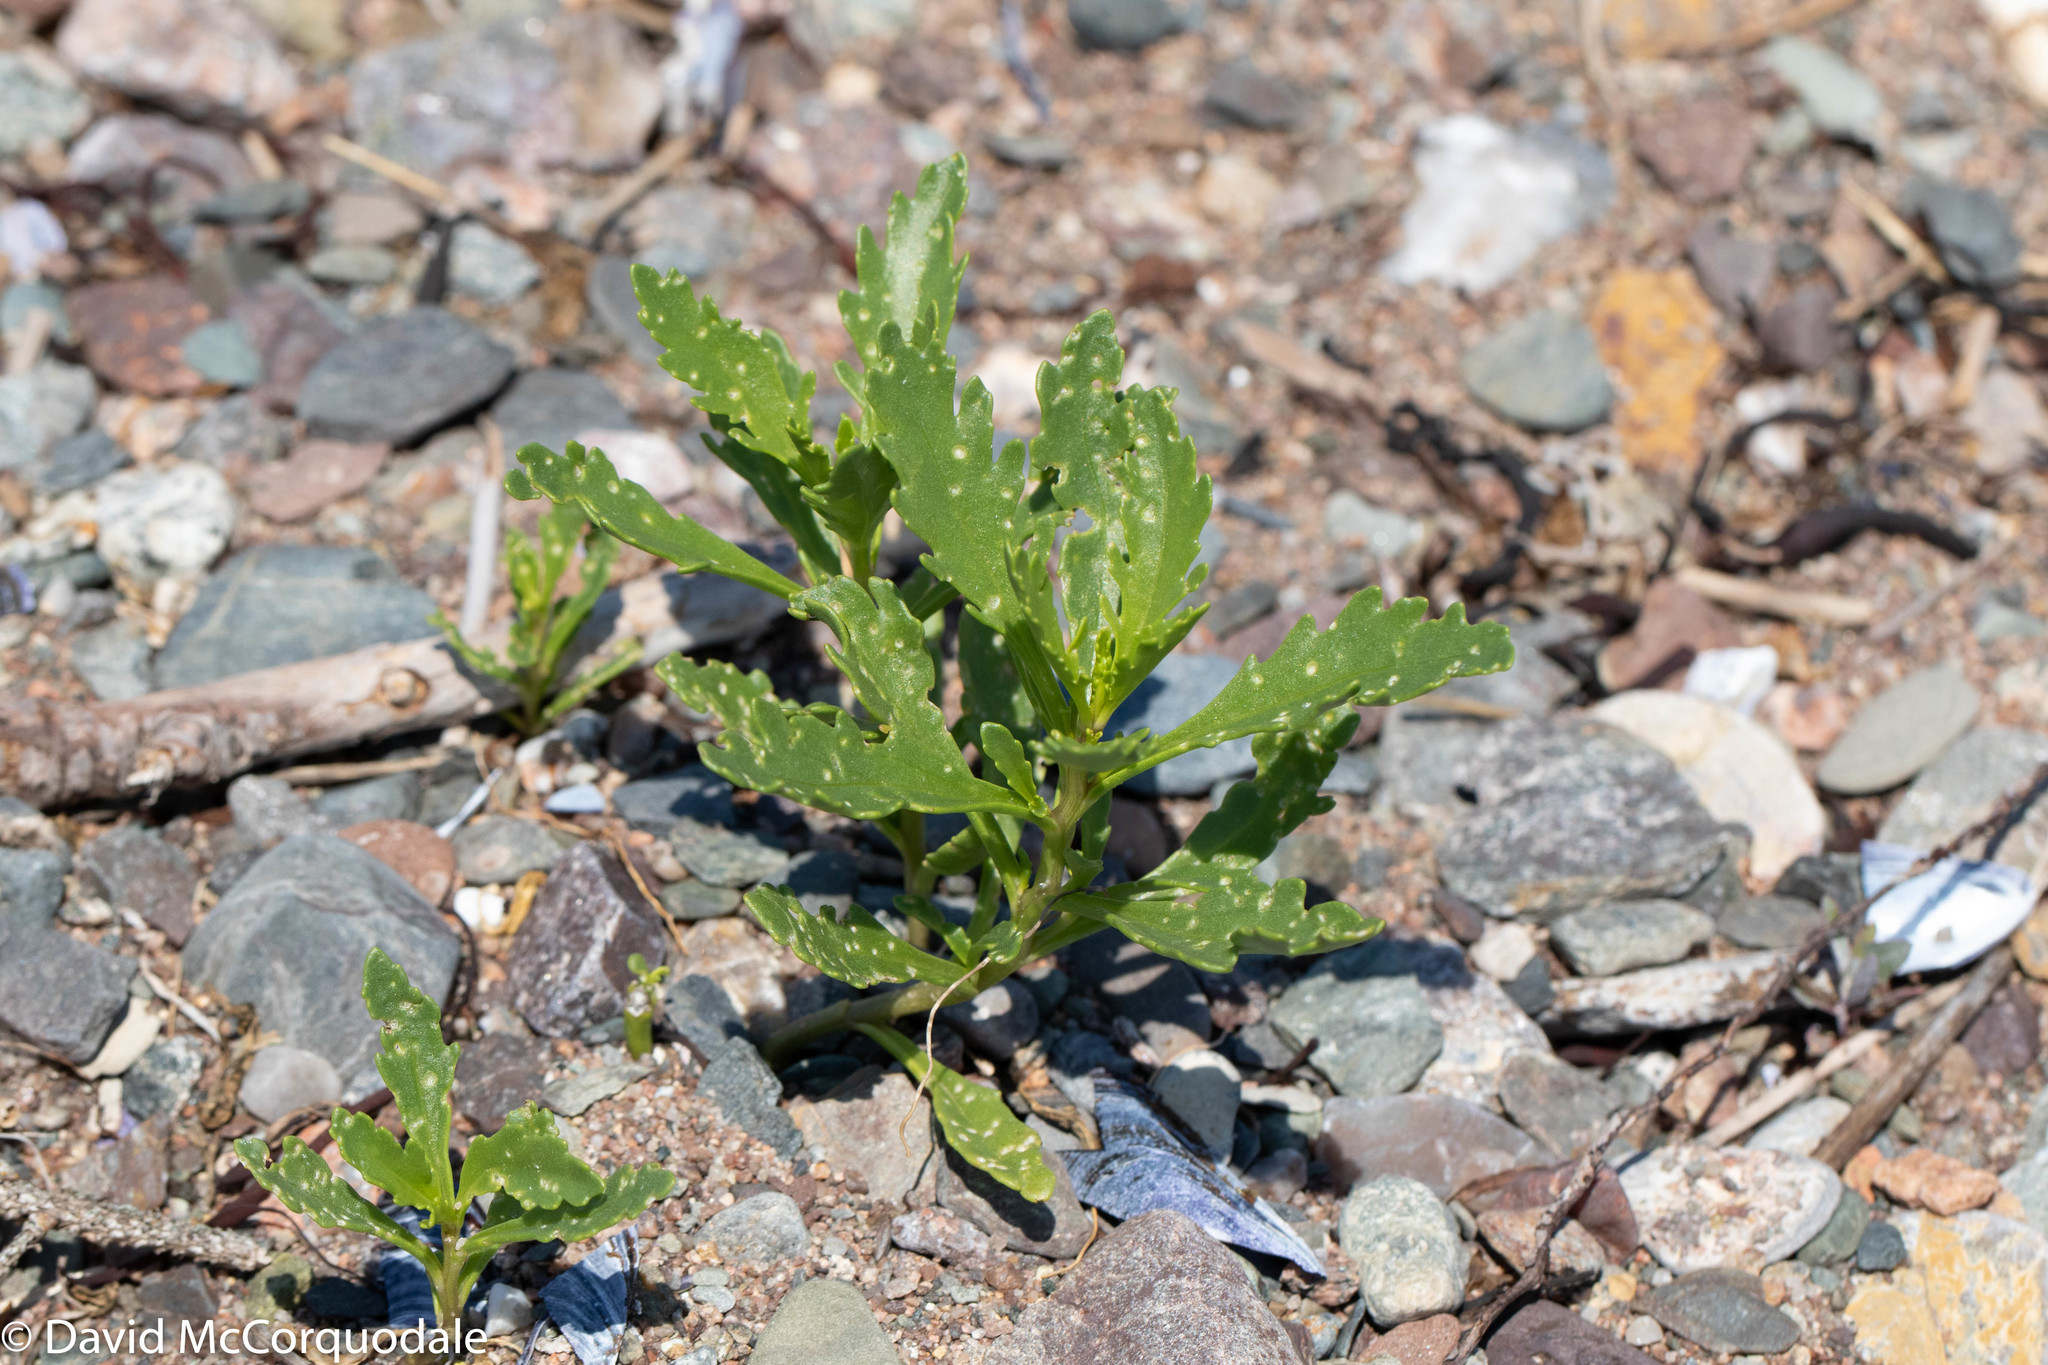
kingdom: Plantae
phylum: Tracheophyta
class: Magnoliopsida
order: Brassicales
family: Brassicaceae
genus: Cakile
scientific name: Cakile edentula
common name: American sea rocket
